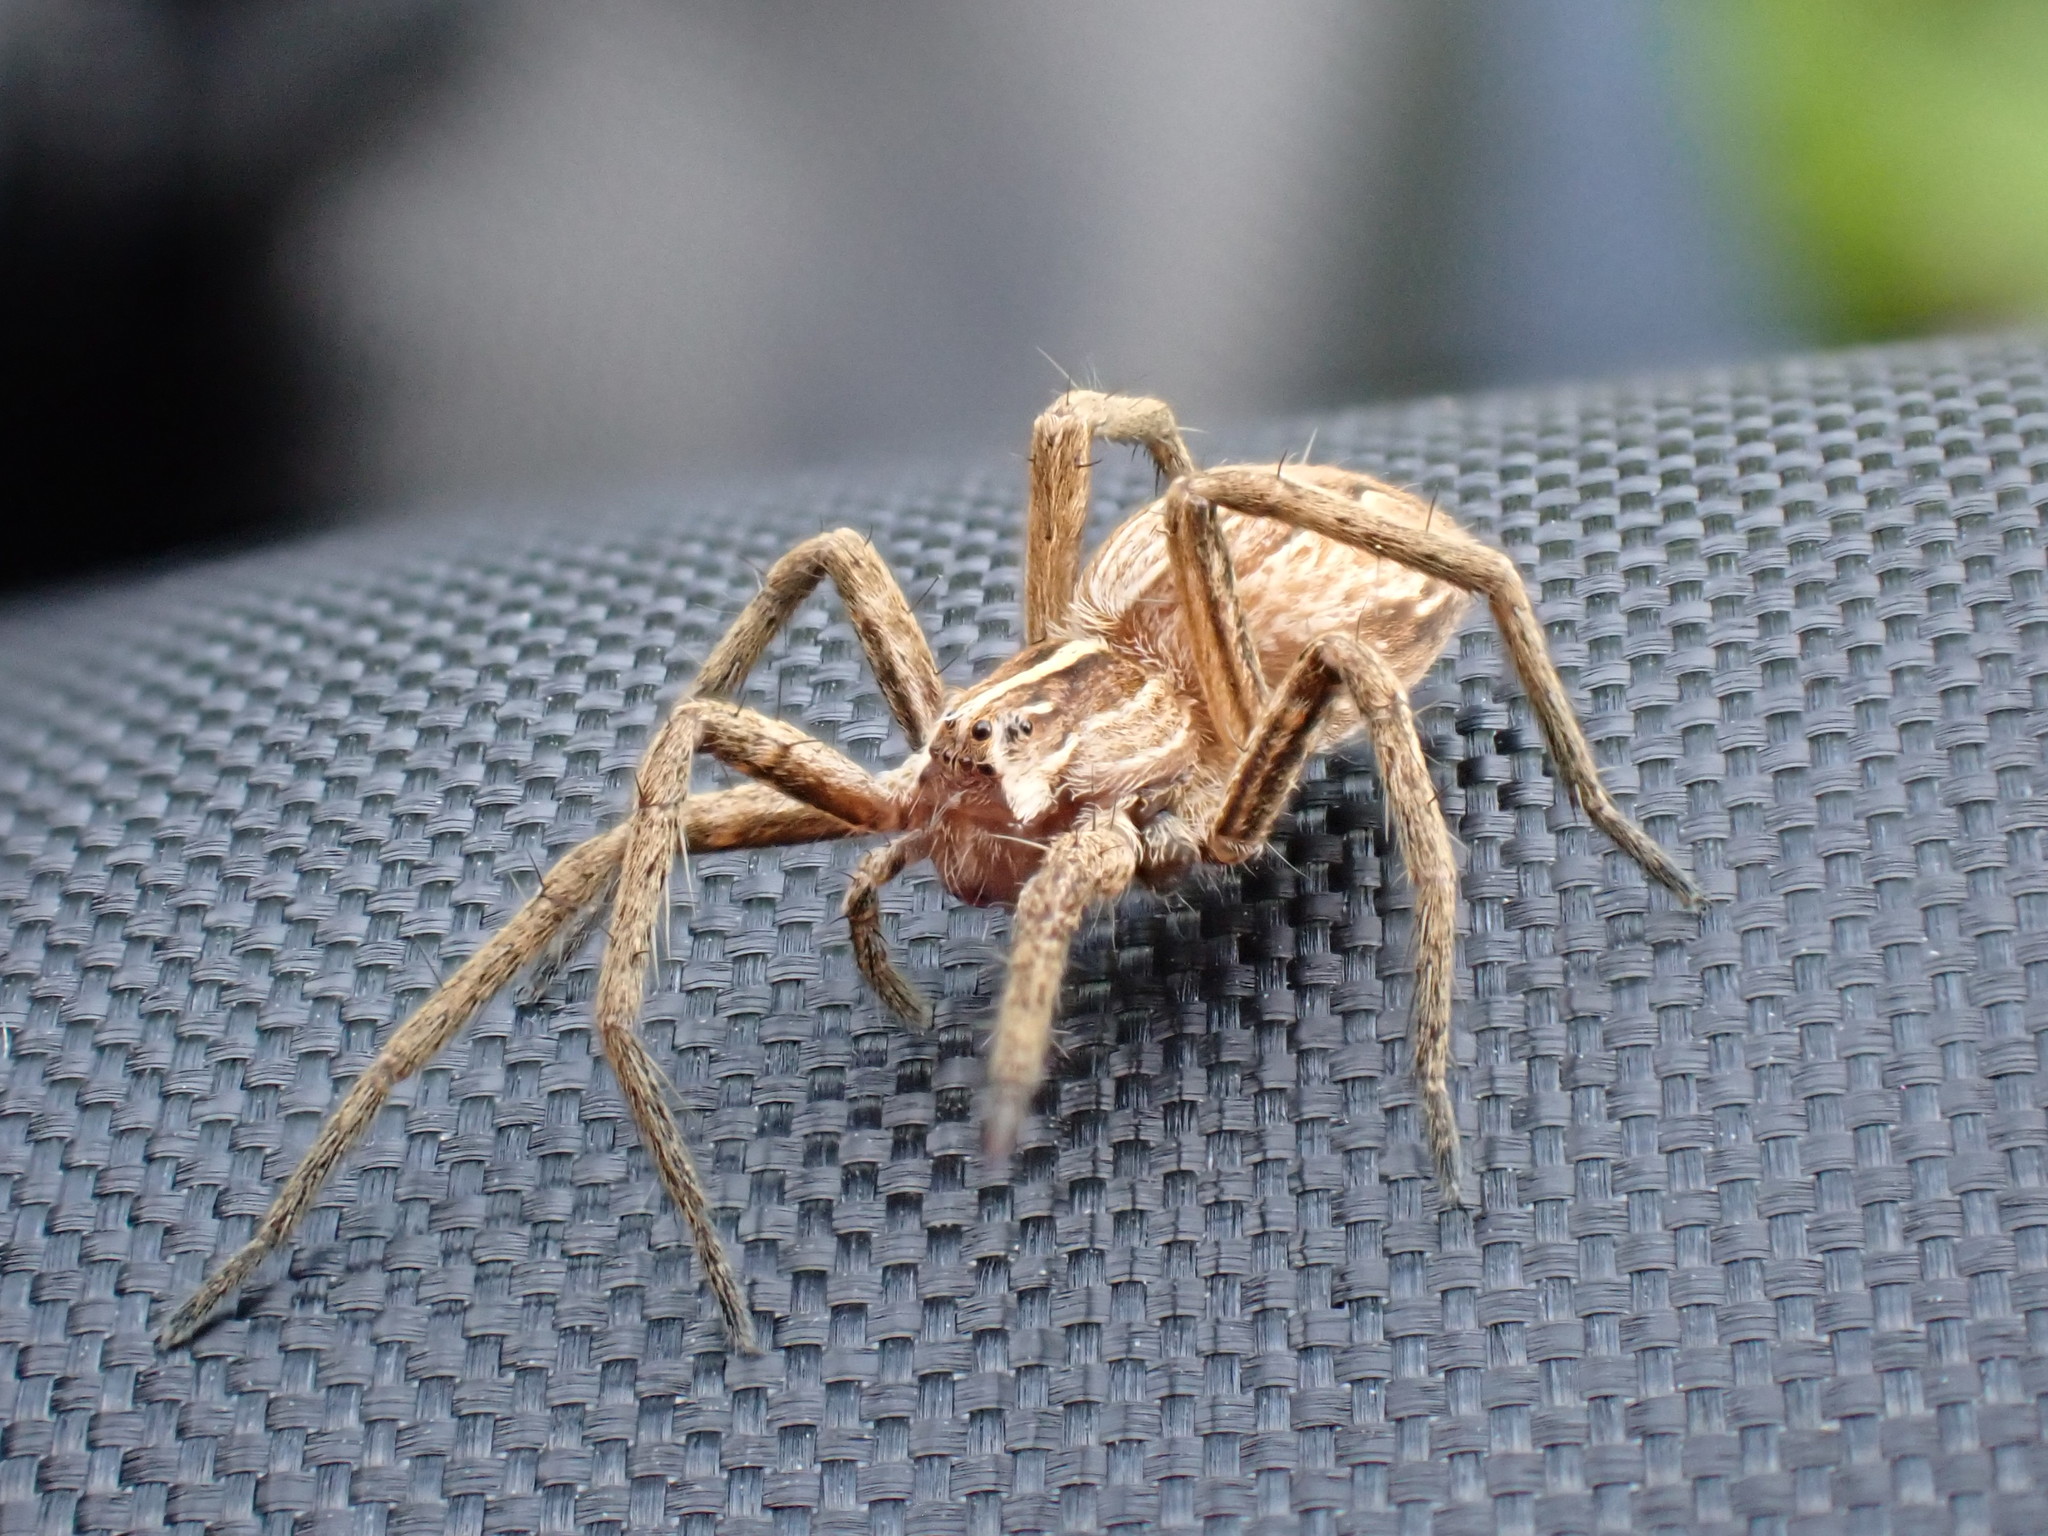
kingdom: Animalia
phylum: Arthropoda
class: Arachnida
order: Araneae
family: Pisauridae
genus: Pisaura
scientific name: Pisaura mirabilis
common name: Tent spider
